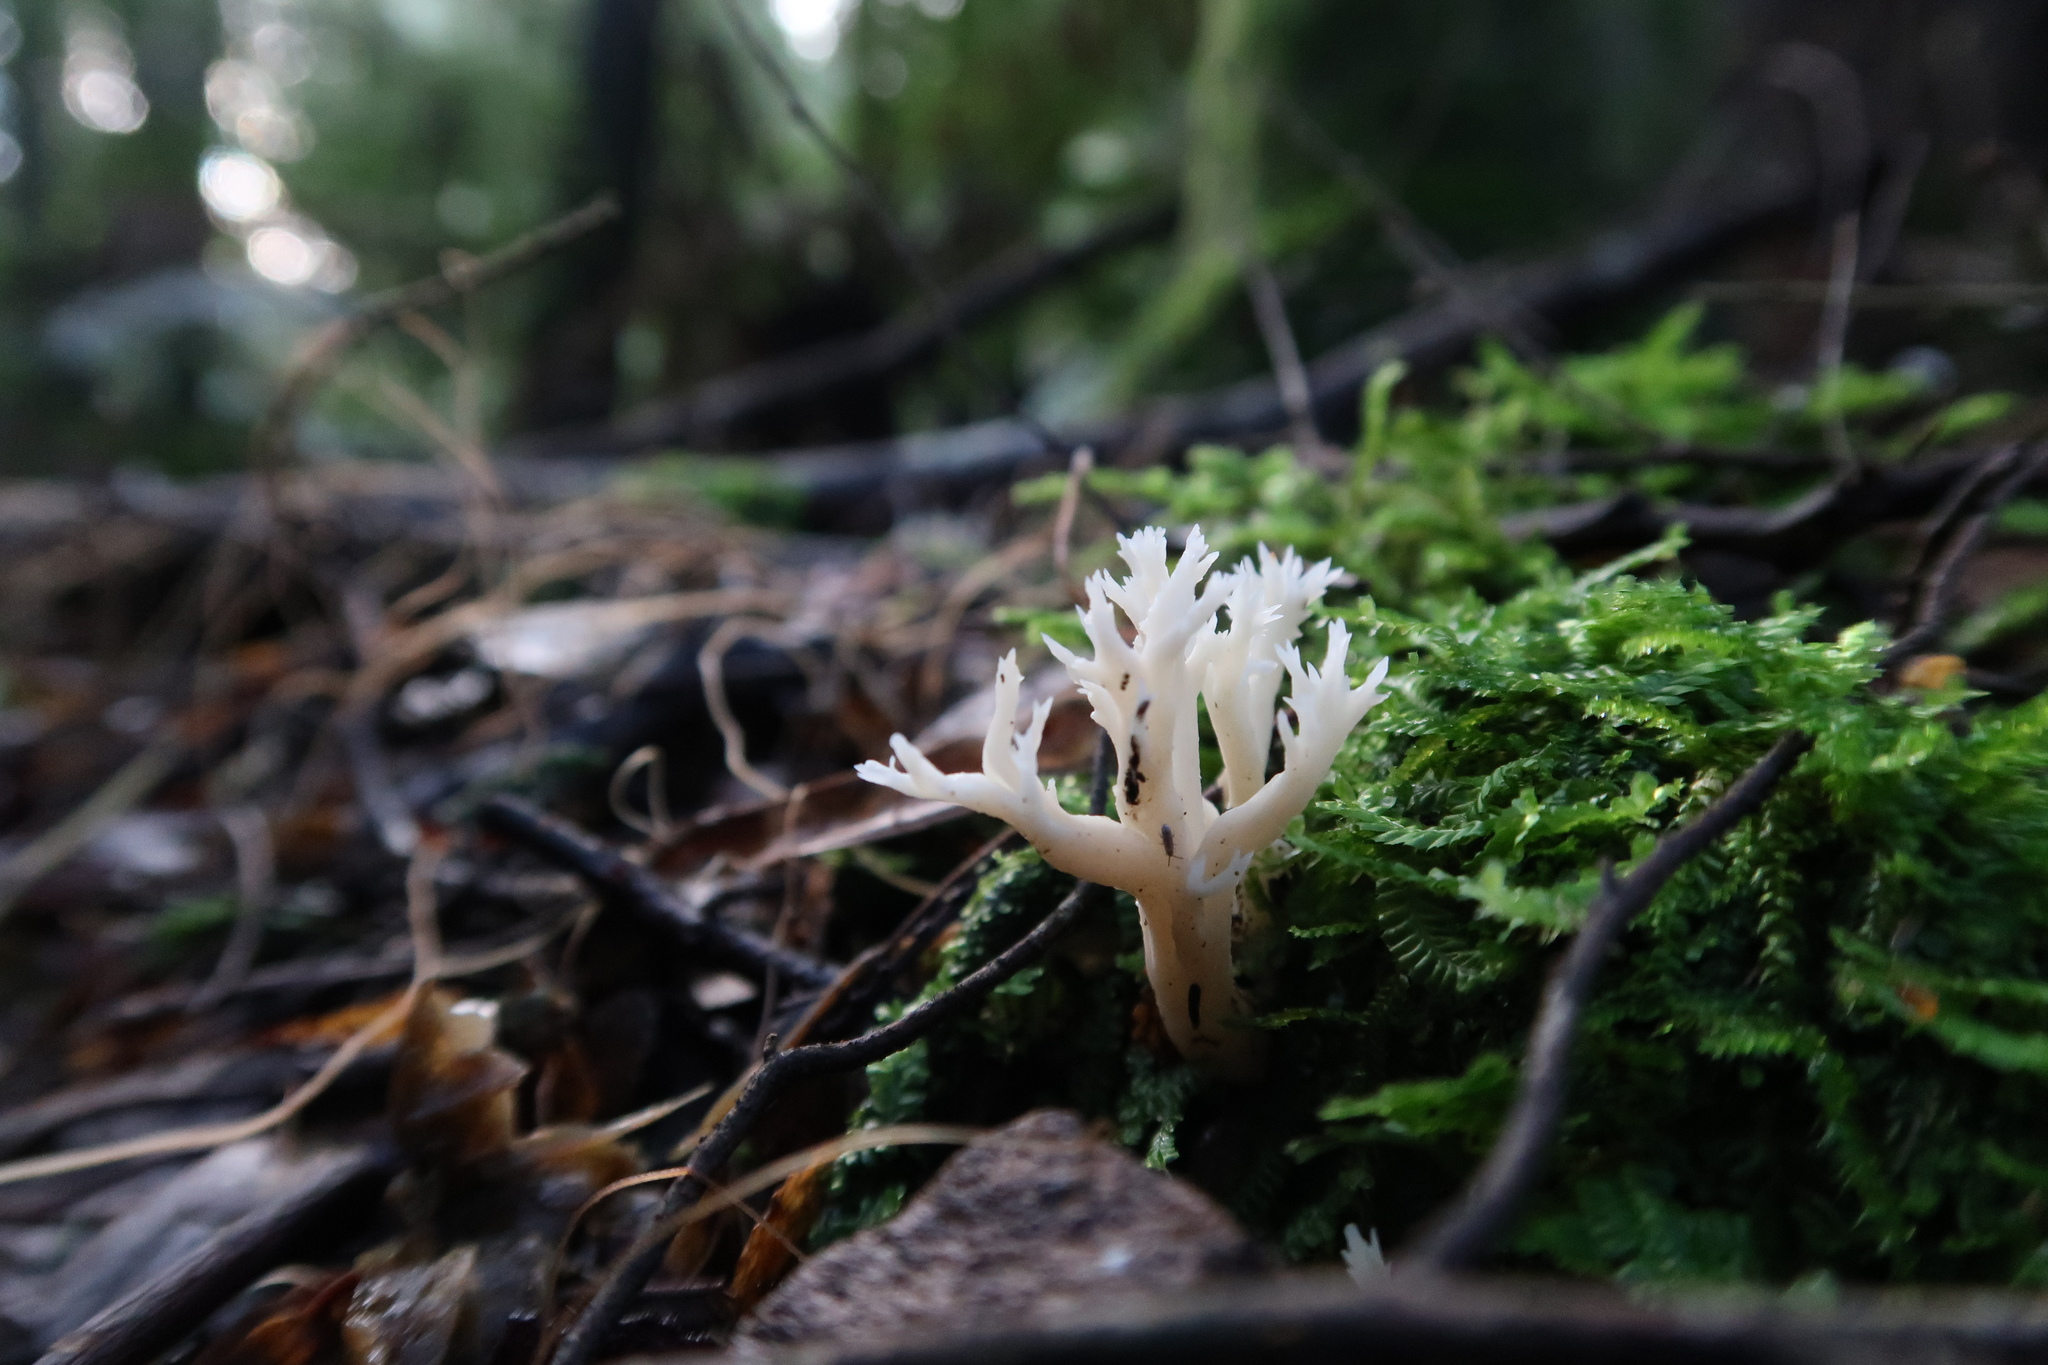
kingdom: Fungi
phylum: Basidiomycota
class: Agaricomycetes
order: Cantharellales
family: Hydnaceae
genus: Clavulina
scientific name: Clavulina subrugosa
